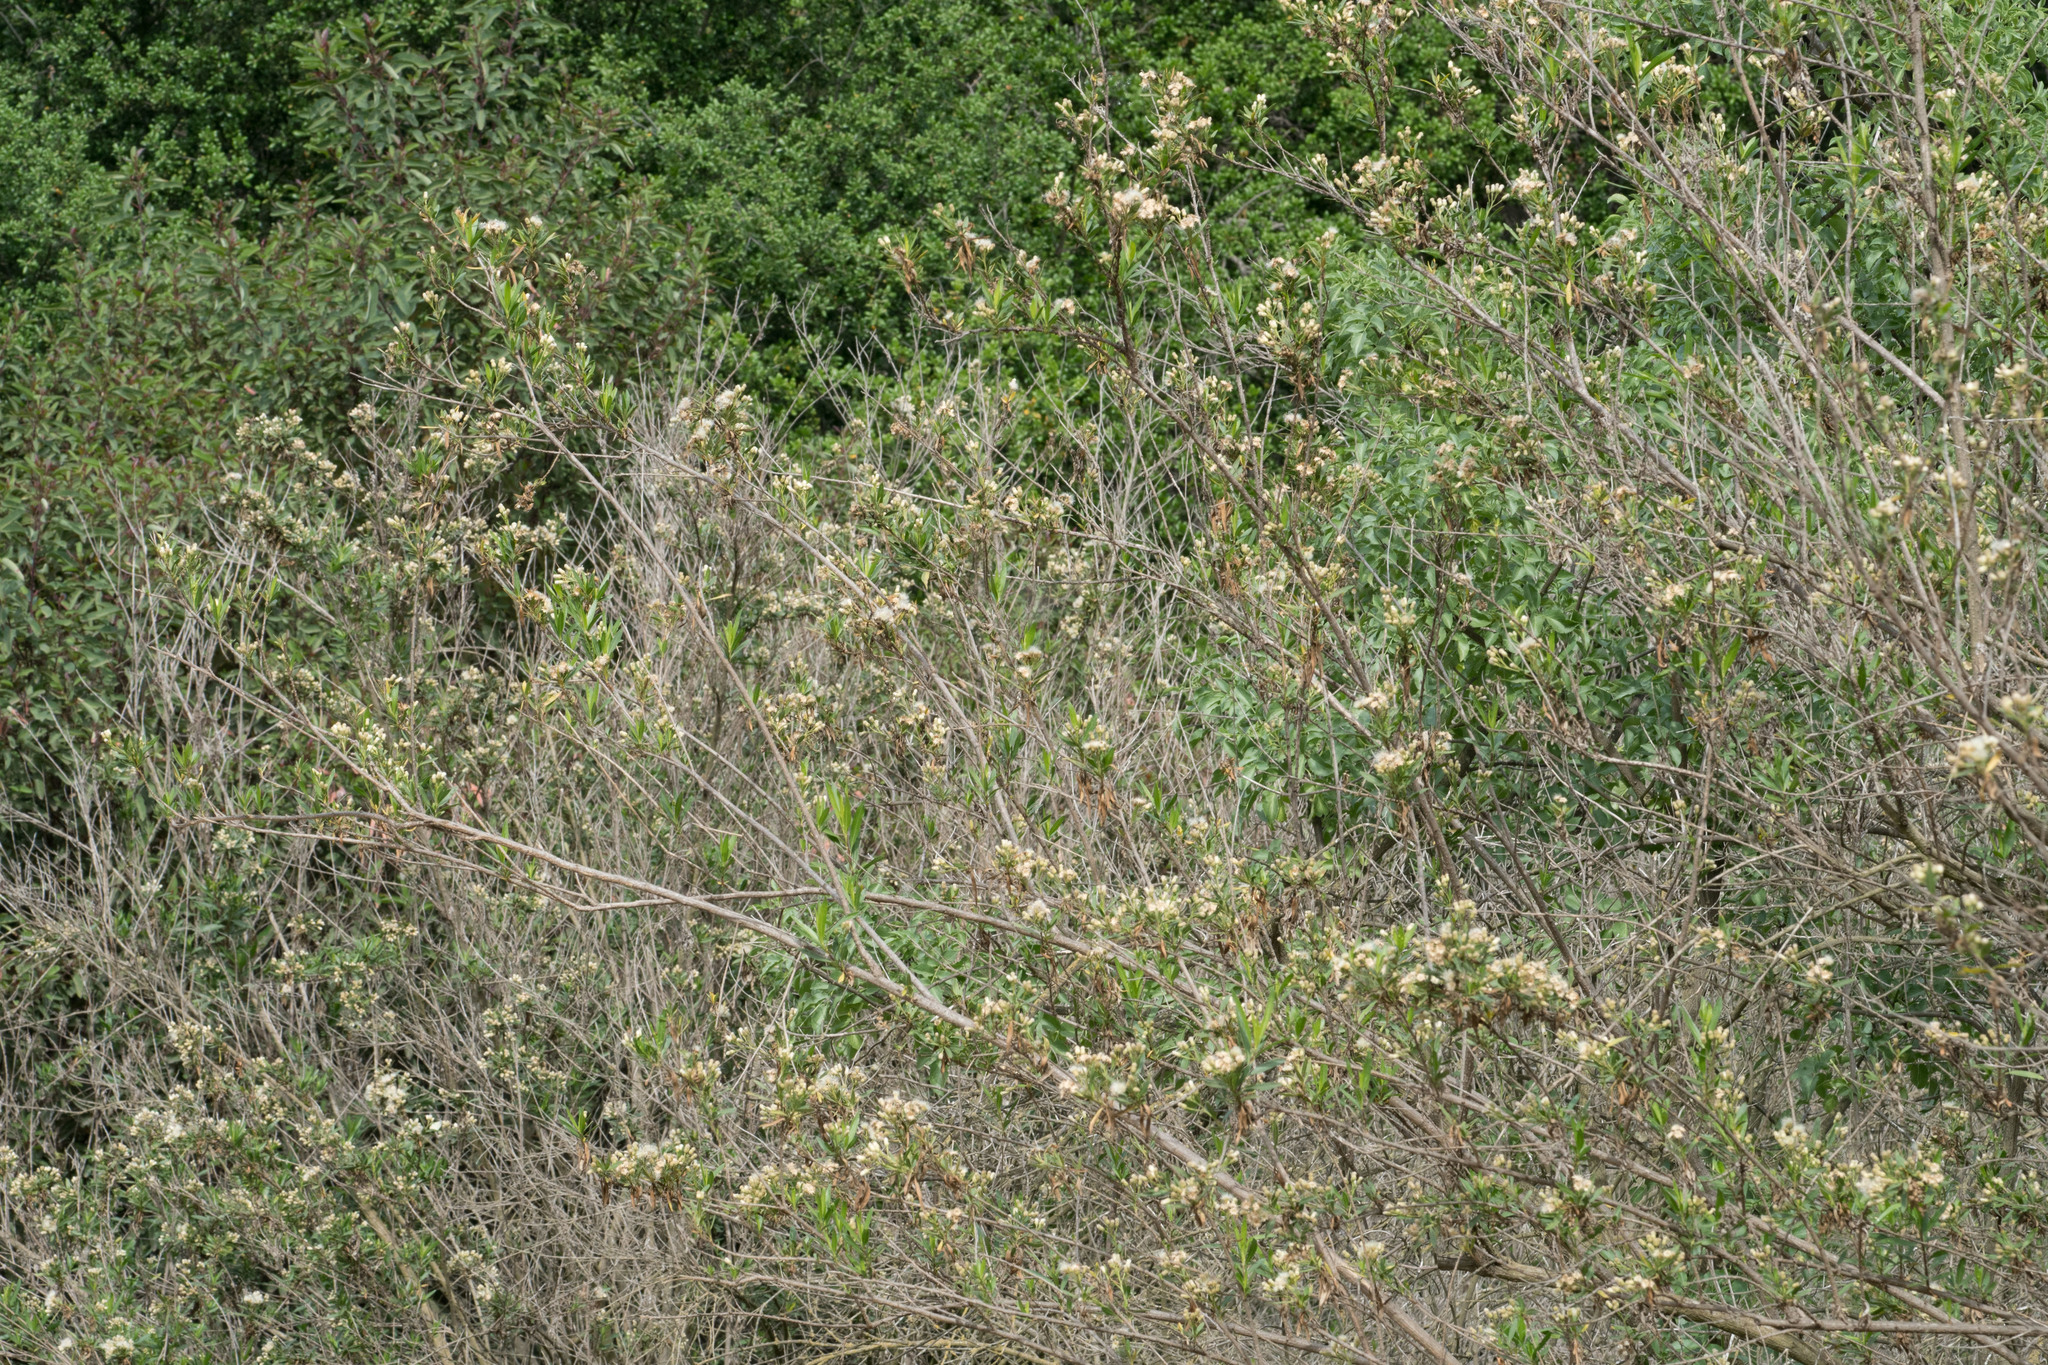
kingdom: Plantae
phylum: Tracheophyta
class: Magnoliopsida
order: Asterales
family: Asteraceae
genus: Baccharis
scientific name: Baccharis salicifolia
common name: Sticky baccharis
